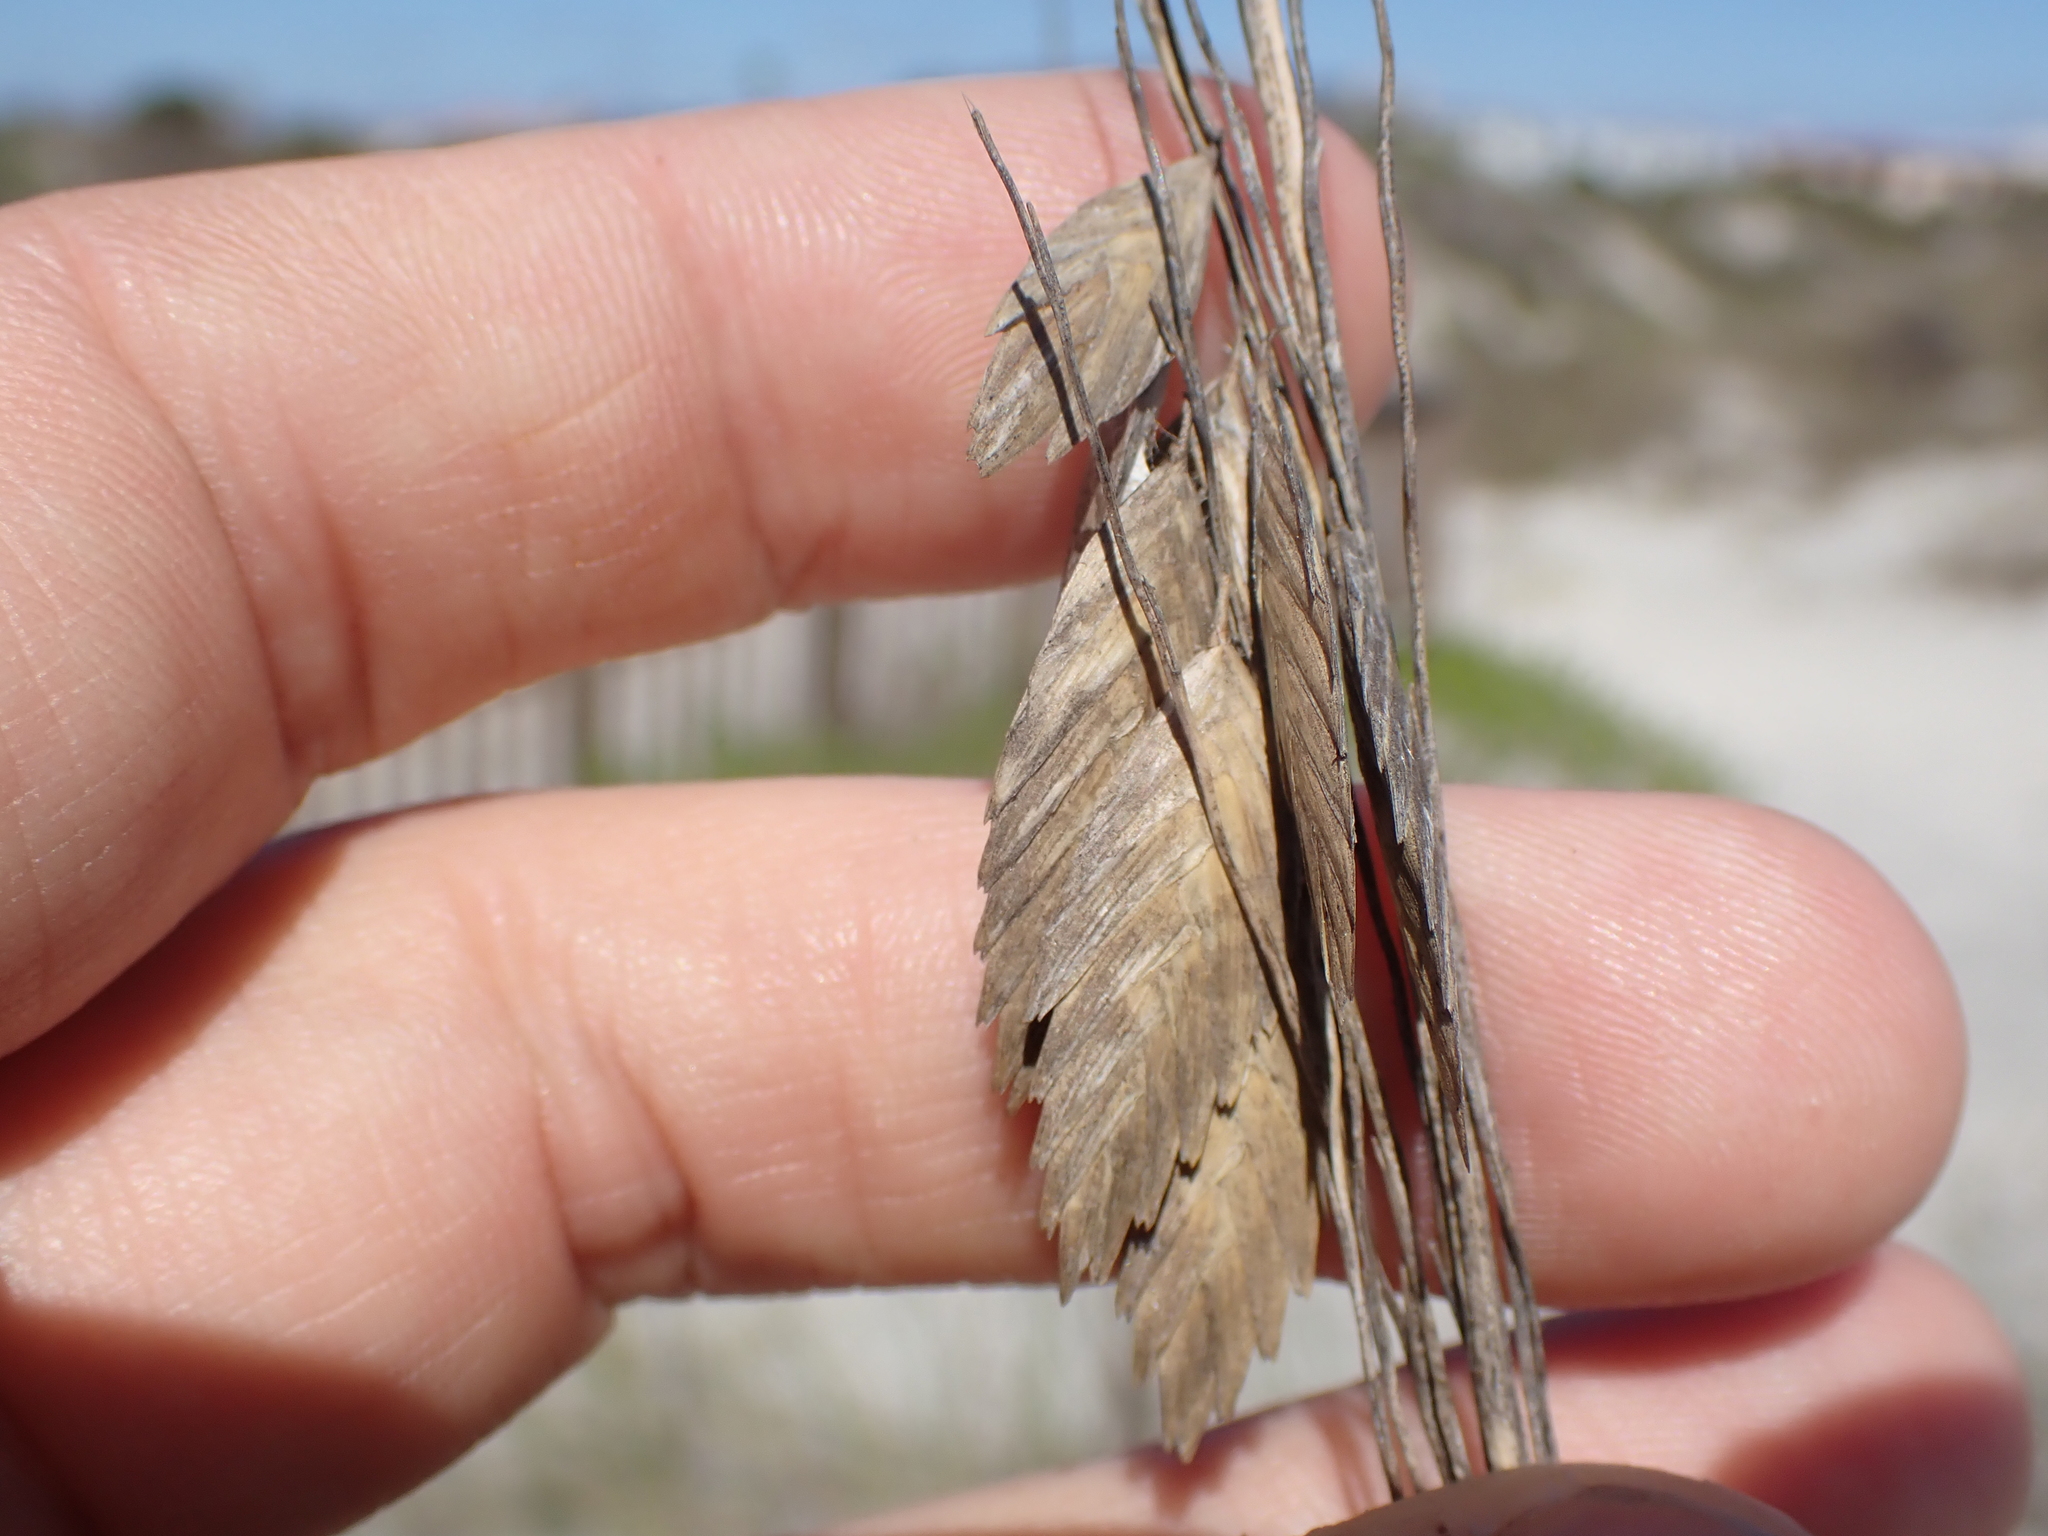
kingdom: Plantae
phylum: Tracheophyta
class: Liliopsida
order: Poales
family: Poaceae
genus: Uniola
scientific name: Uniola paniculata
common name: Seaside-oats
